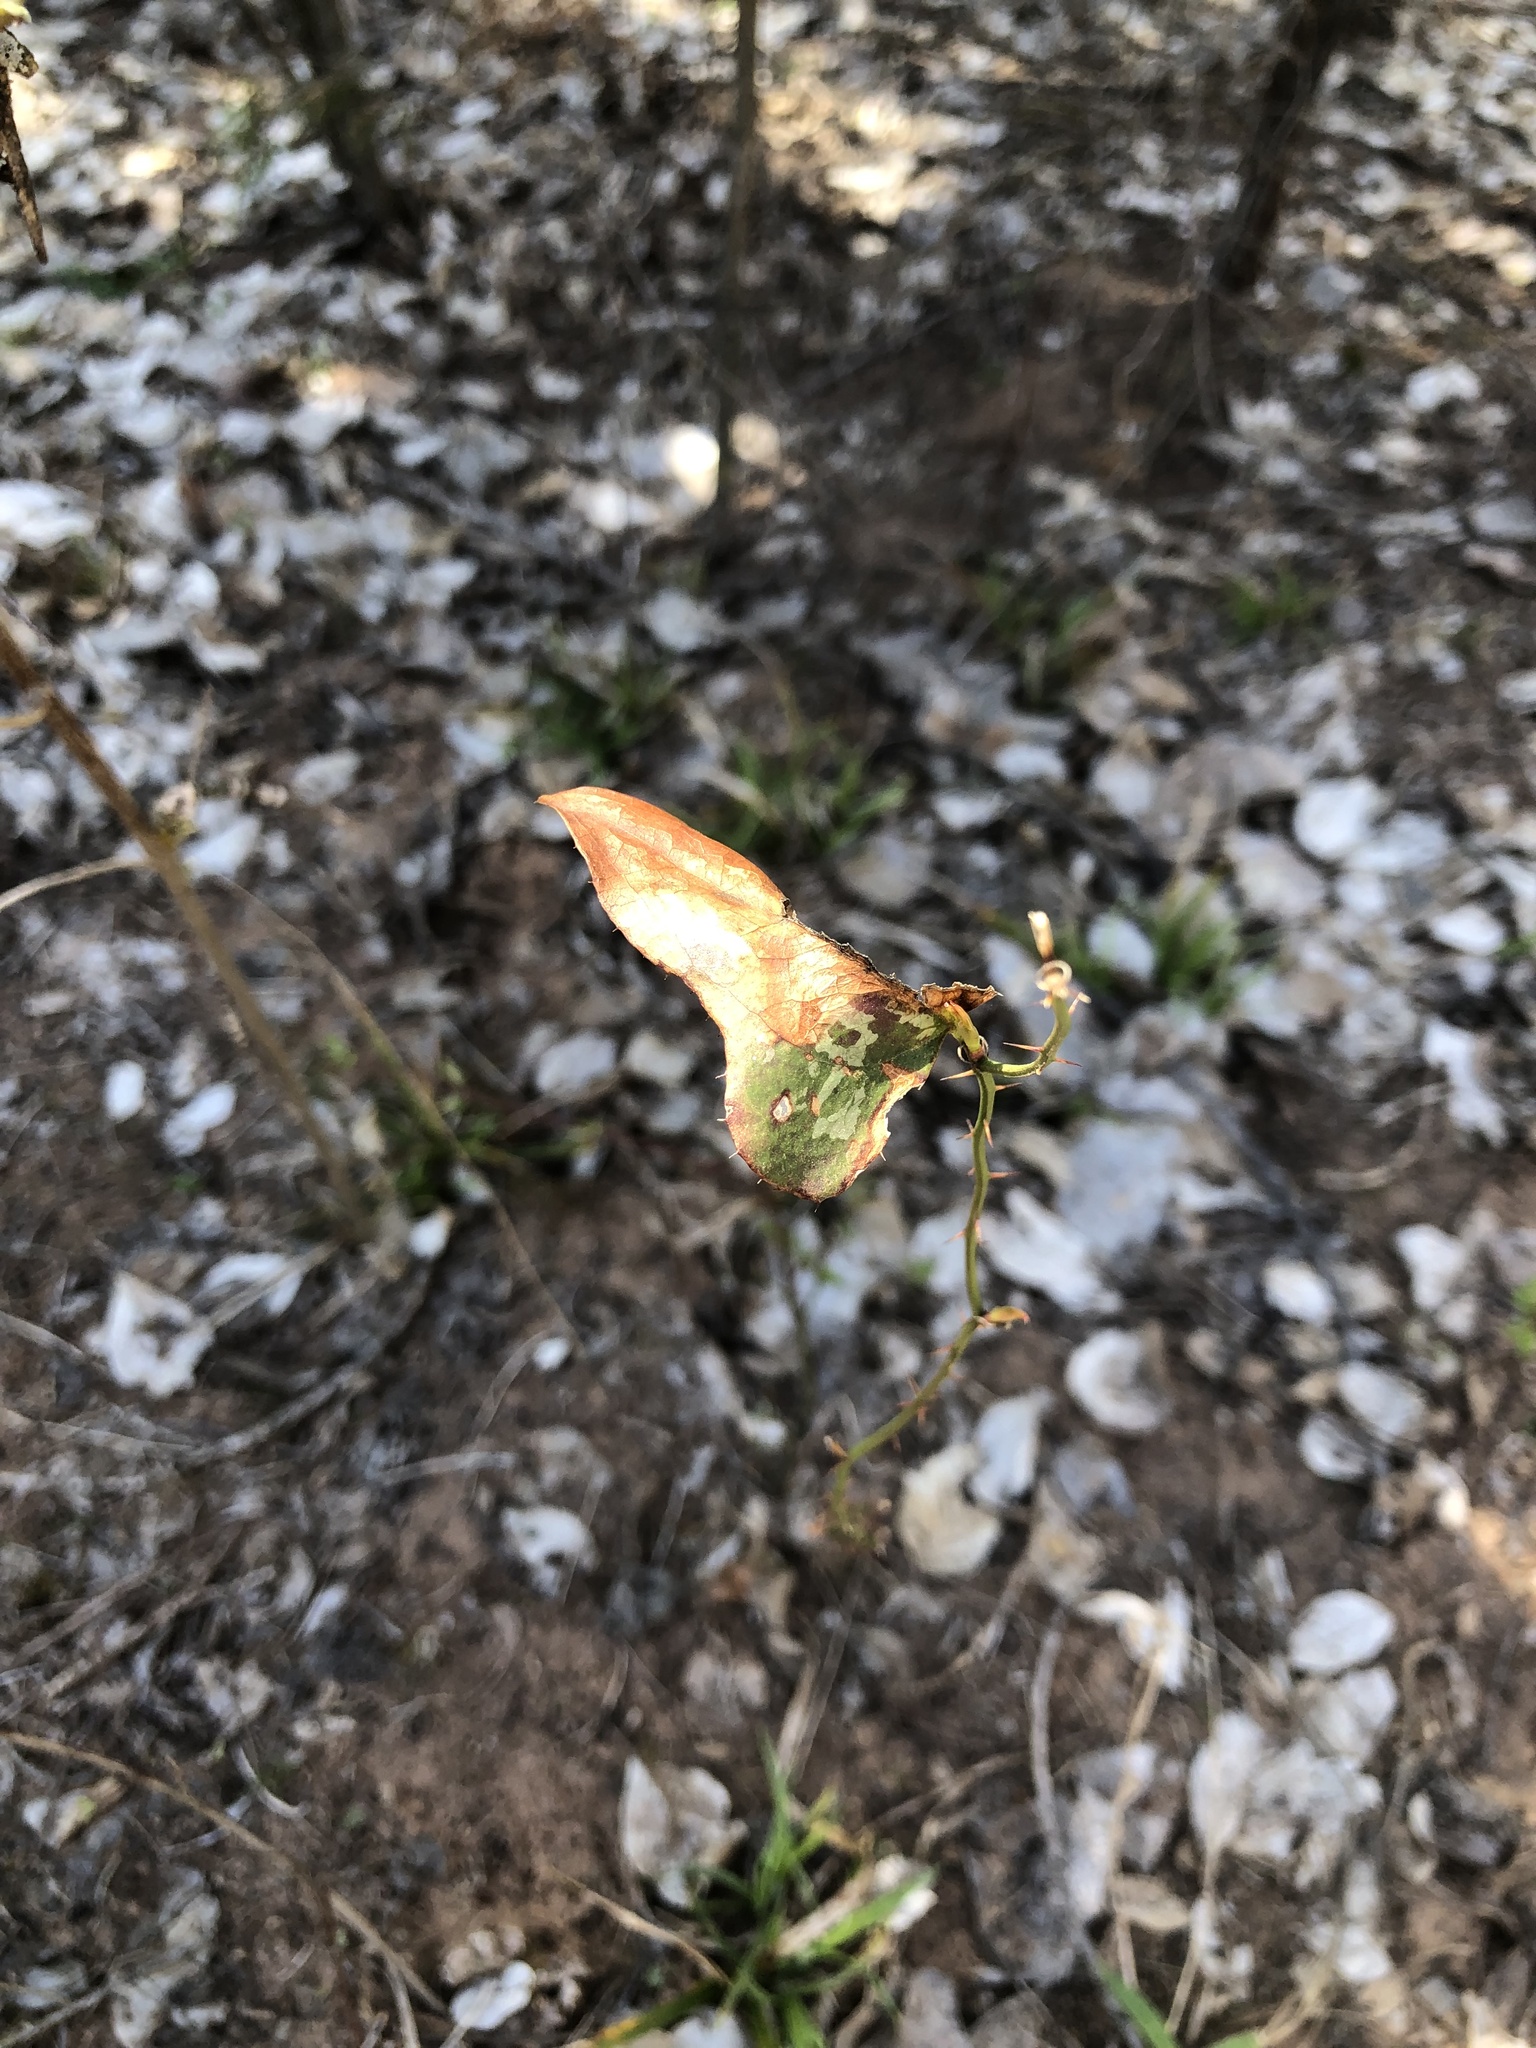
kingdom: Plantae
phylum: Tracheophyta
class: Liliopsida
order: Liliales
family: Smilacaceae
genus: Smilax
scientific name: Smilax bona-nox
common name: Catbrier
